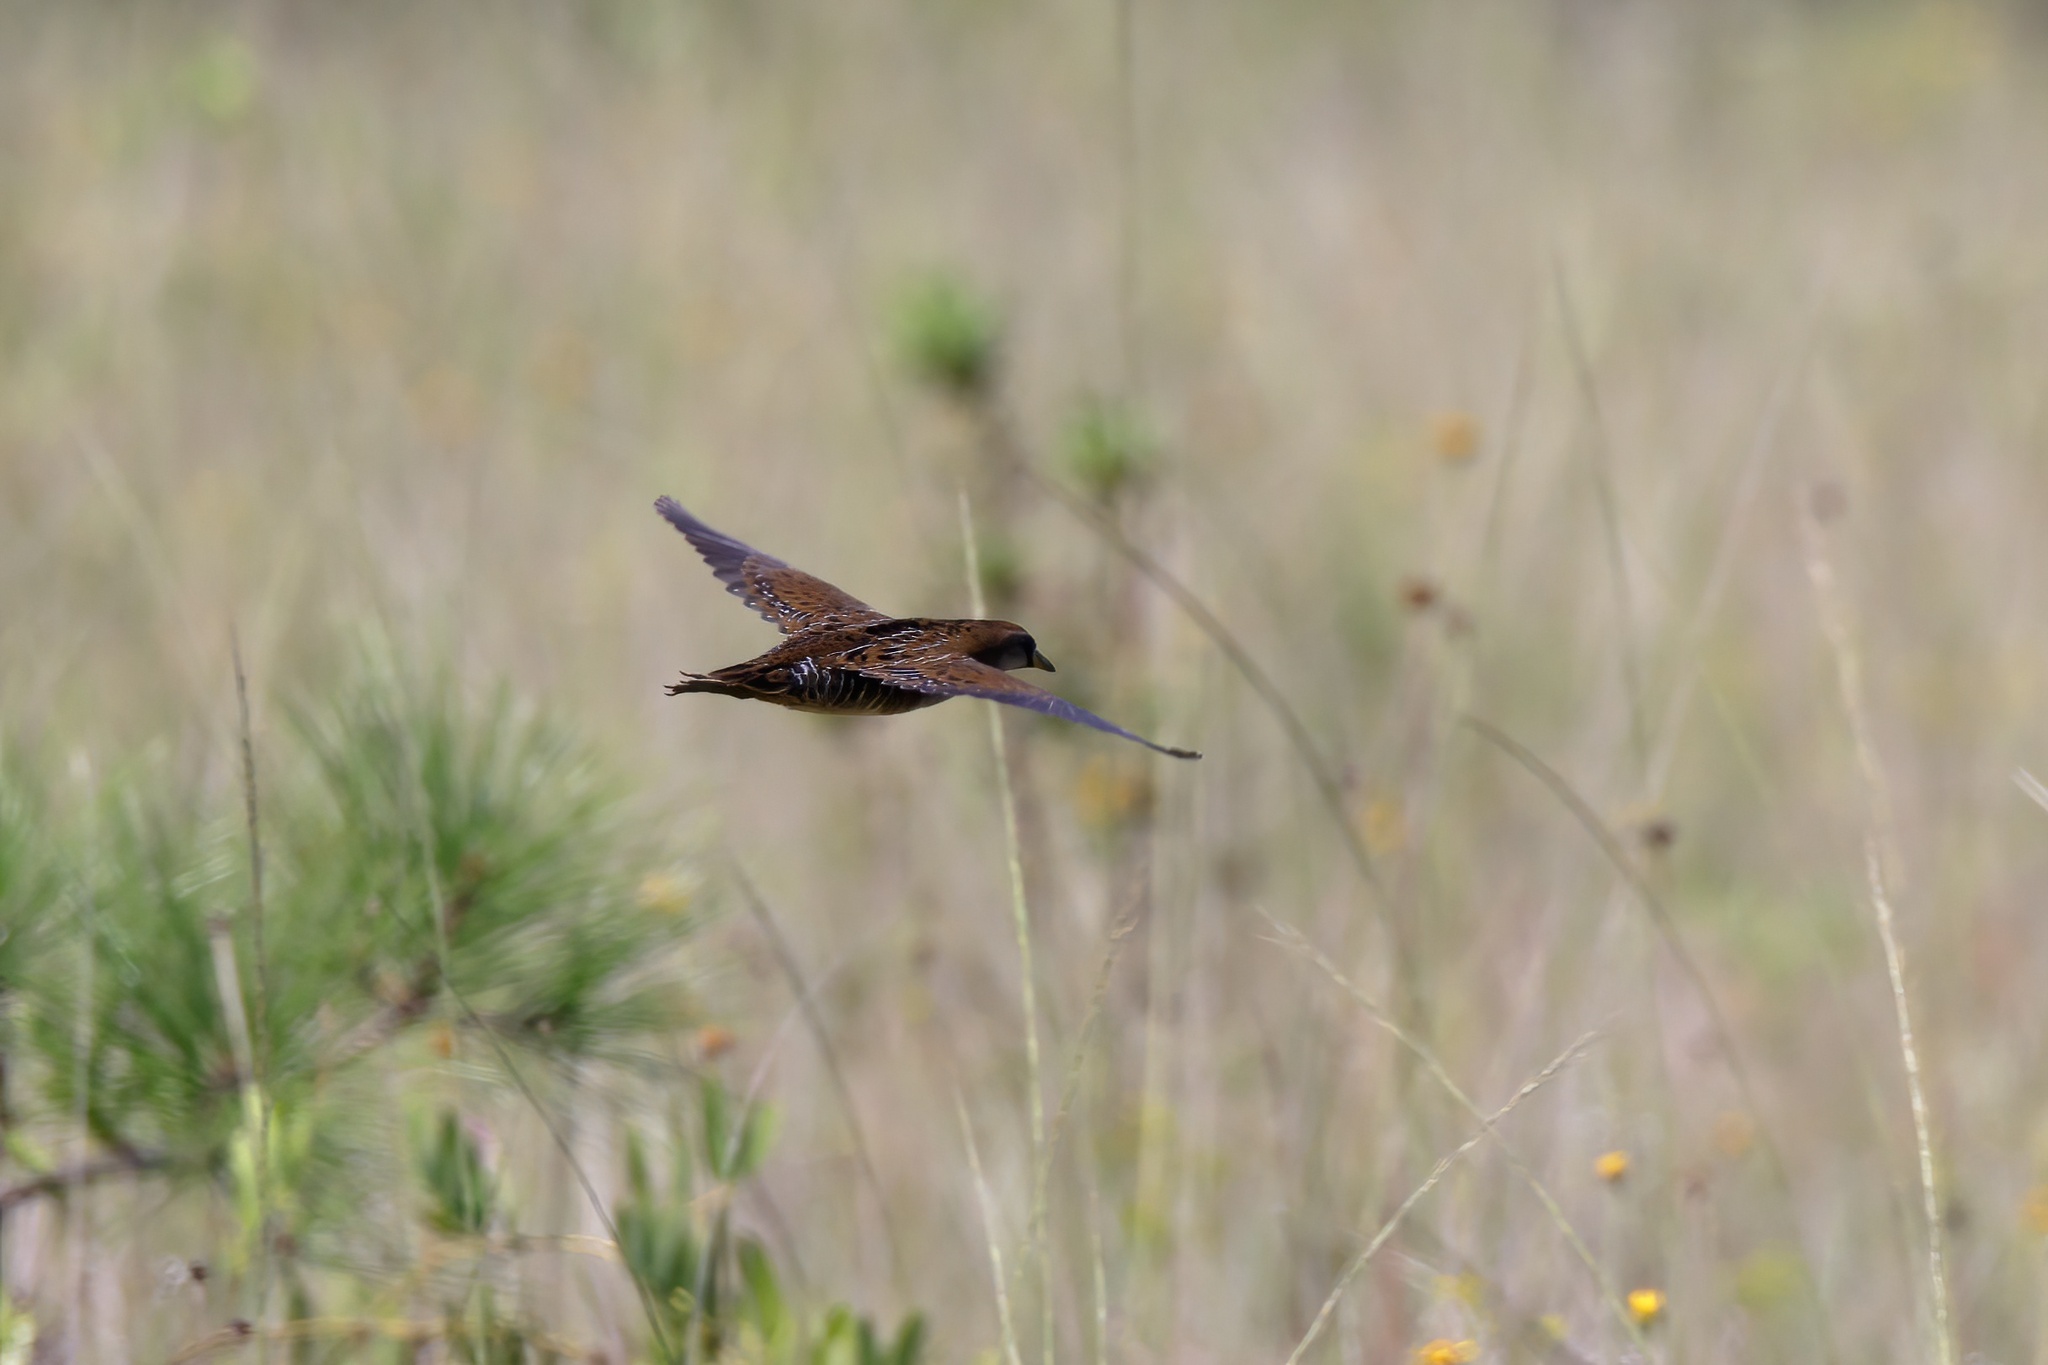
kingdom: Animalia
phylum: Chordata
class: Aves
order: Gruiformes
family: Rallidae
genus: Porzana
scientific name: Porzana carolina
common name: Sora
